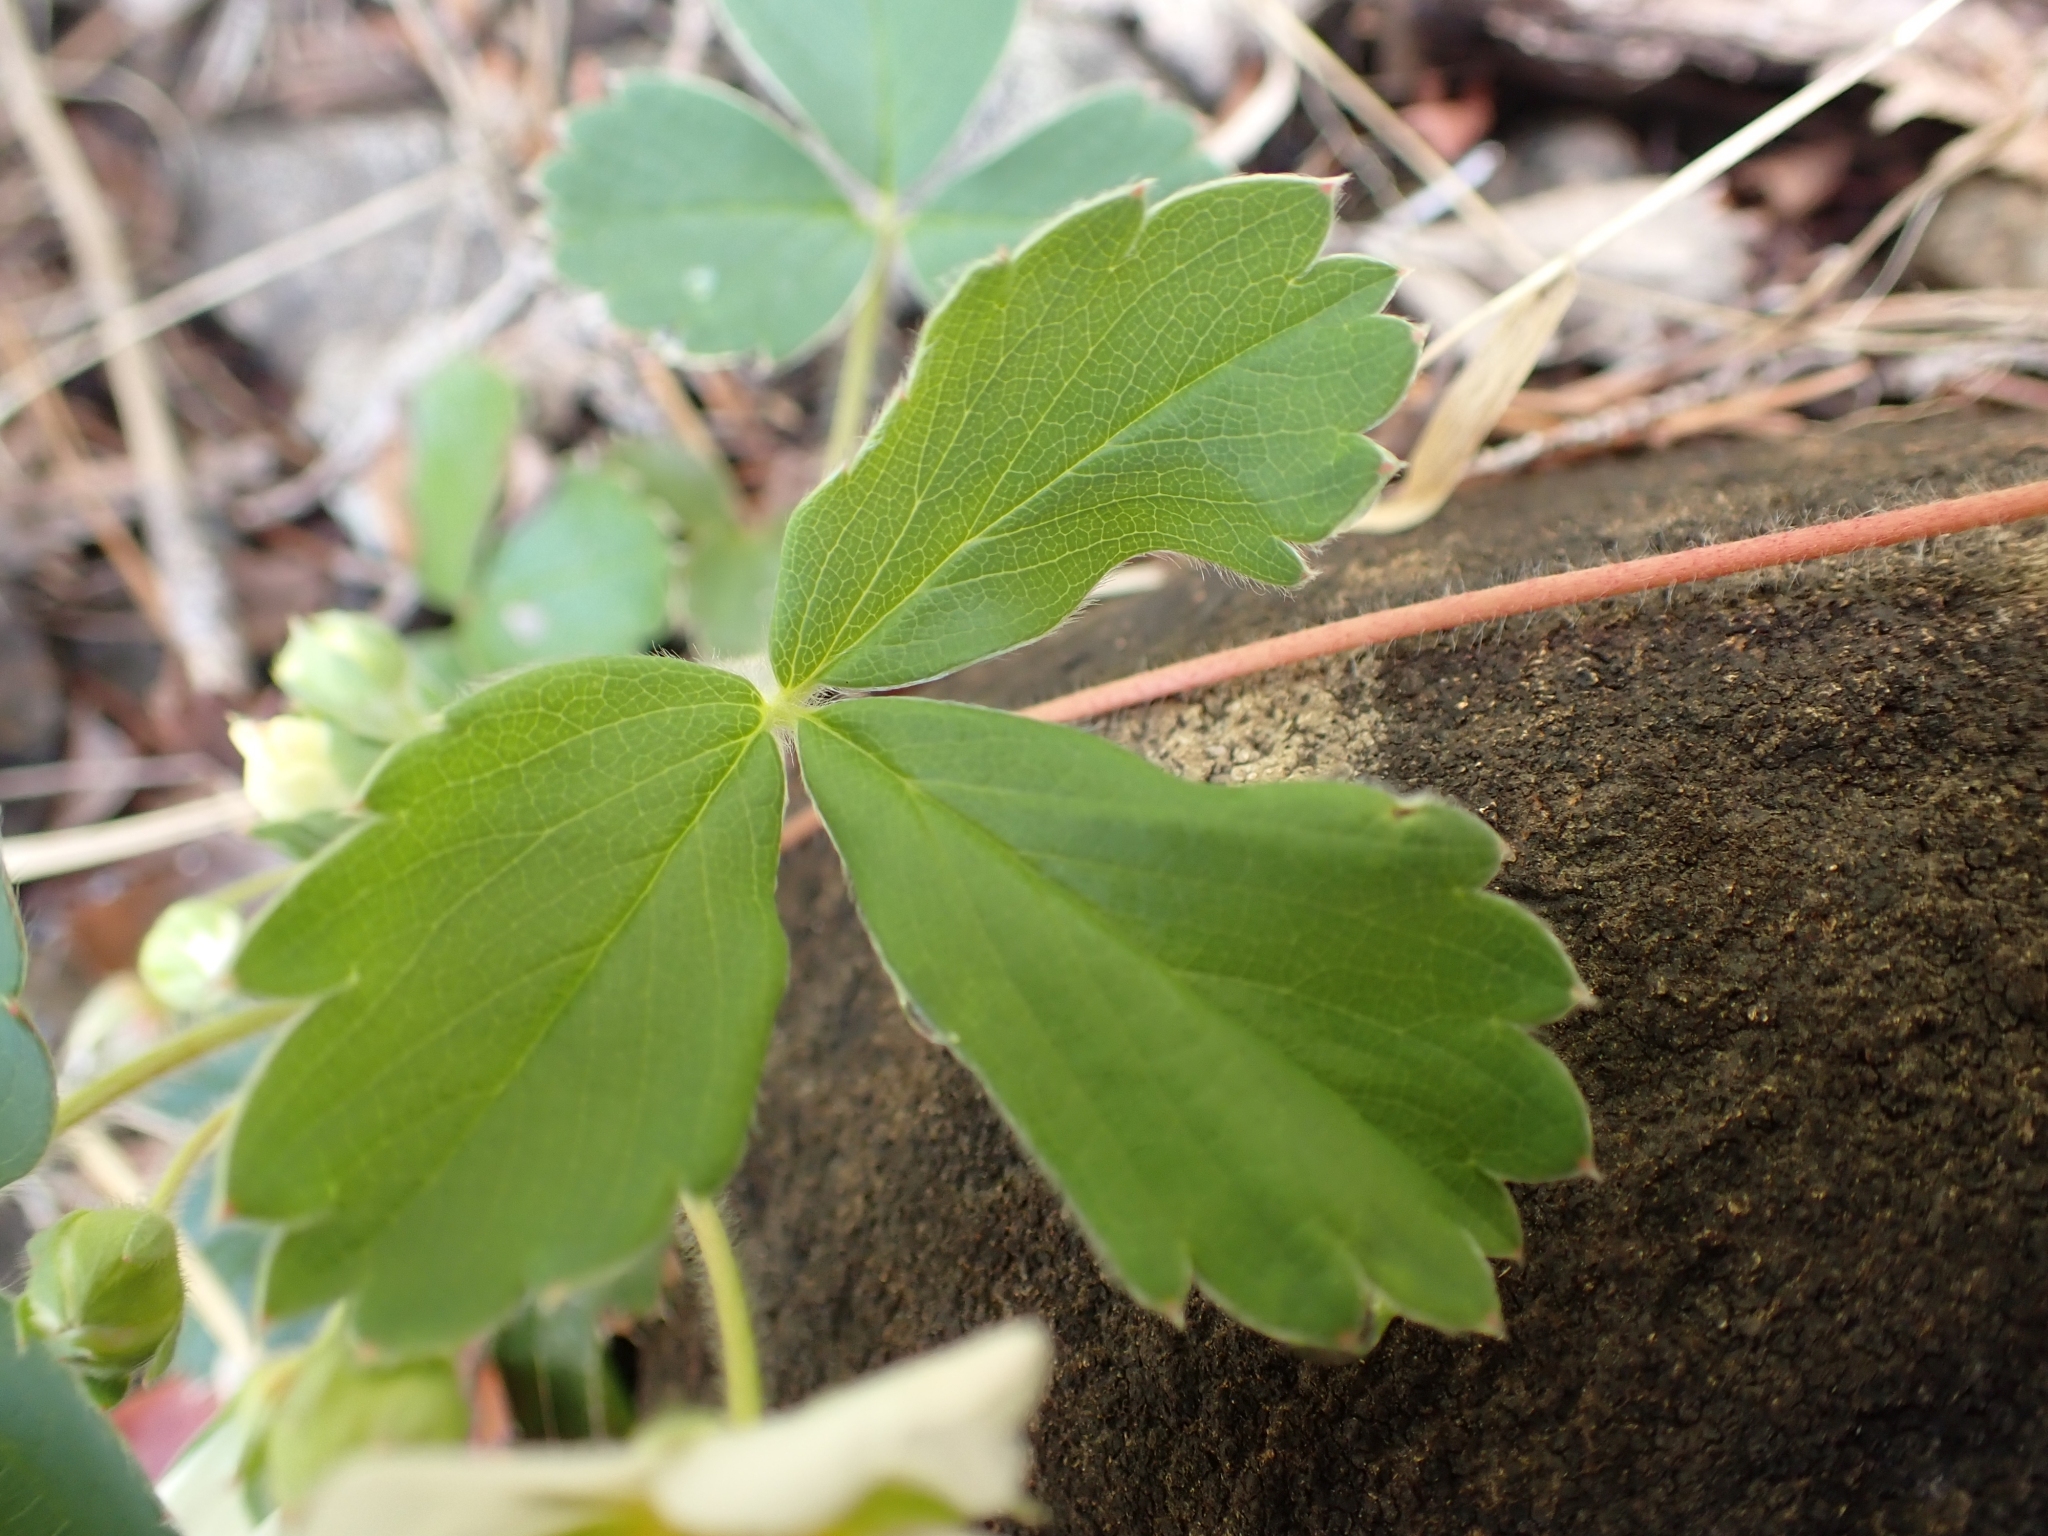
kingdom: Plantae
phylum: Tracheophyta
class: Magnoliopsida
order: Rosales
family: Rosaceae
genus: Fragaria
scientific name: Fragaria virginiana
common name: Thickleaved wild strawberry
